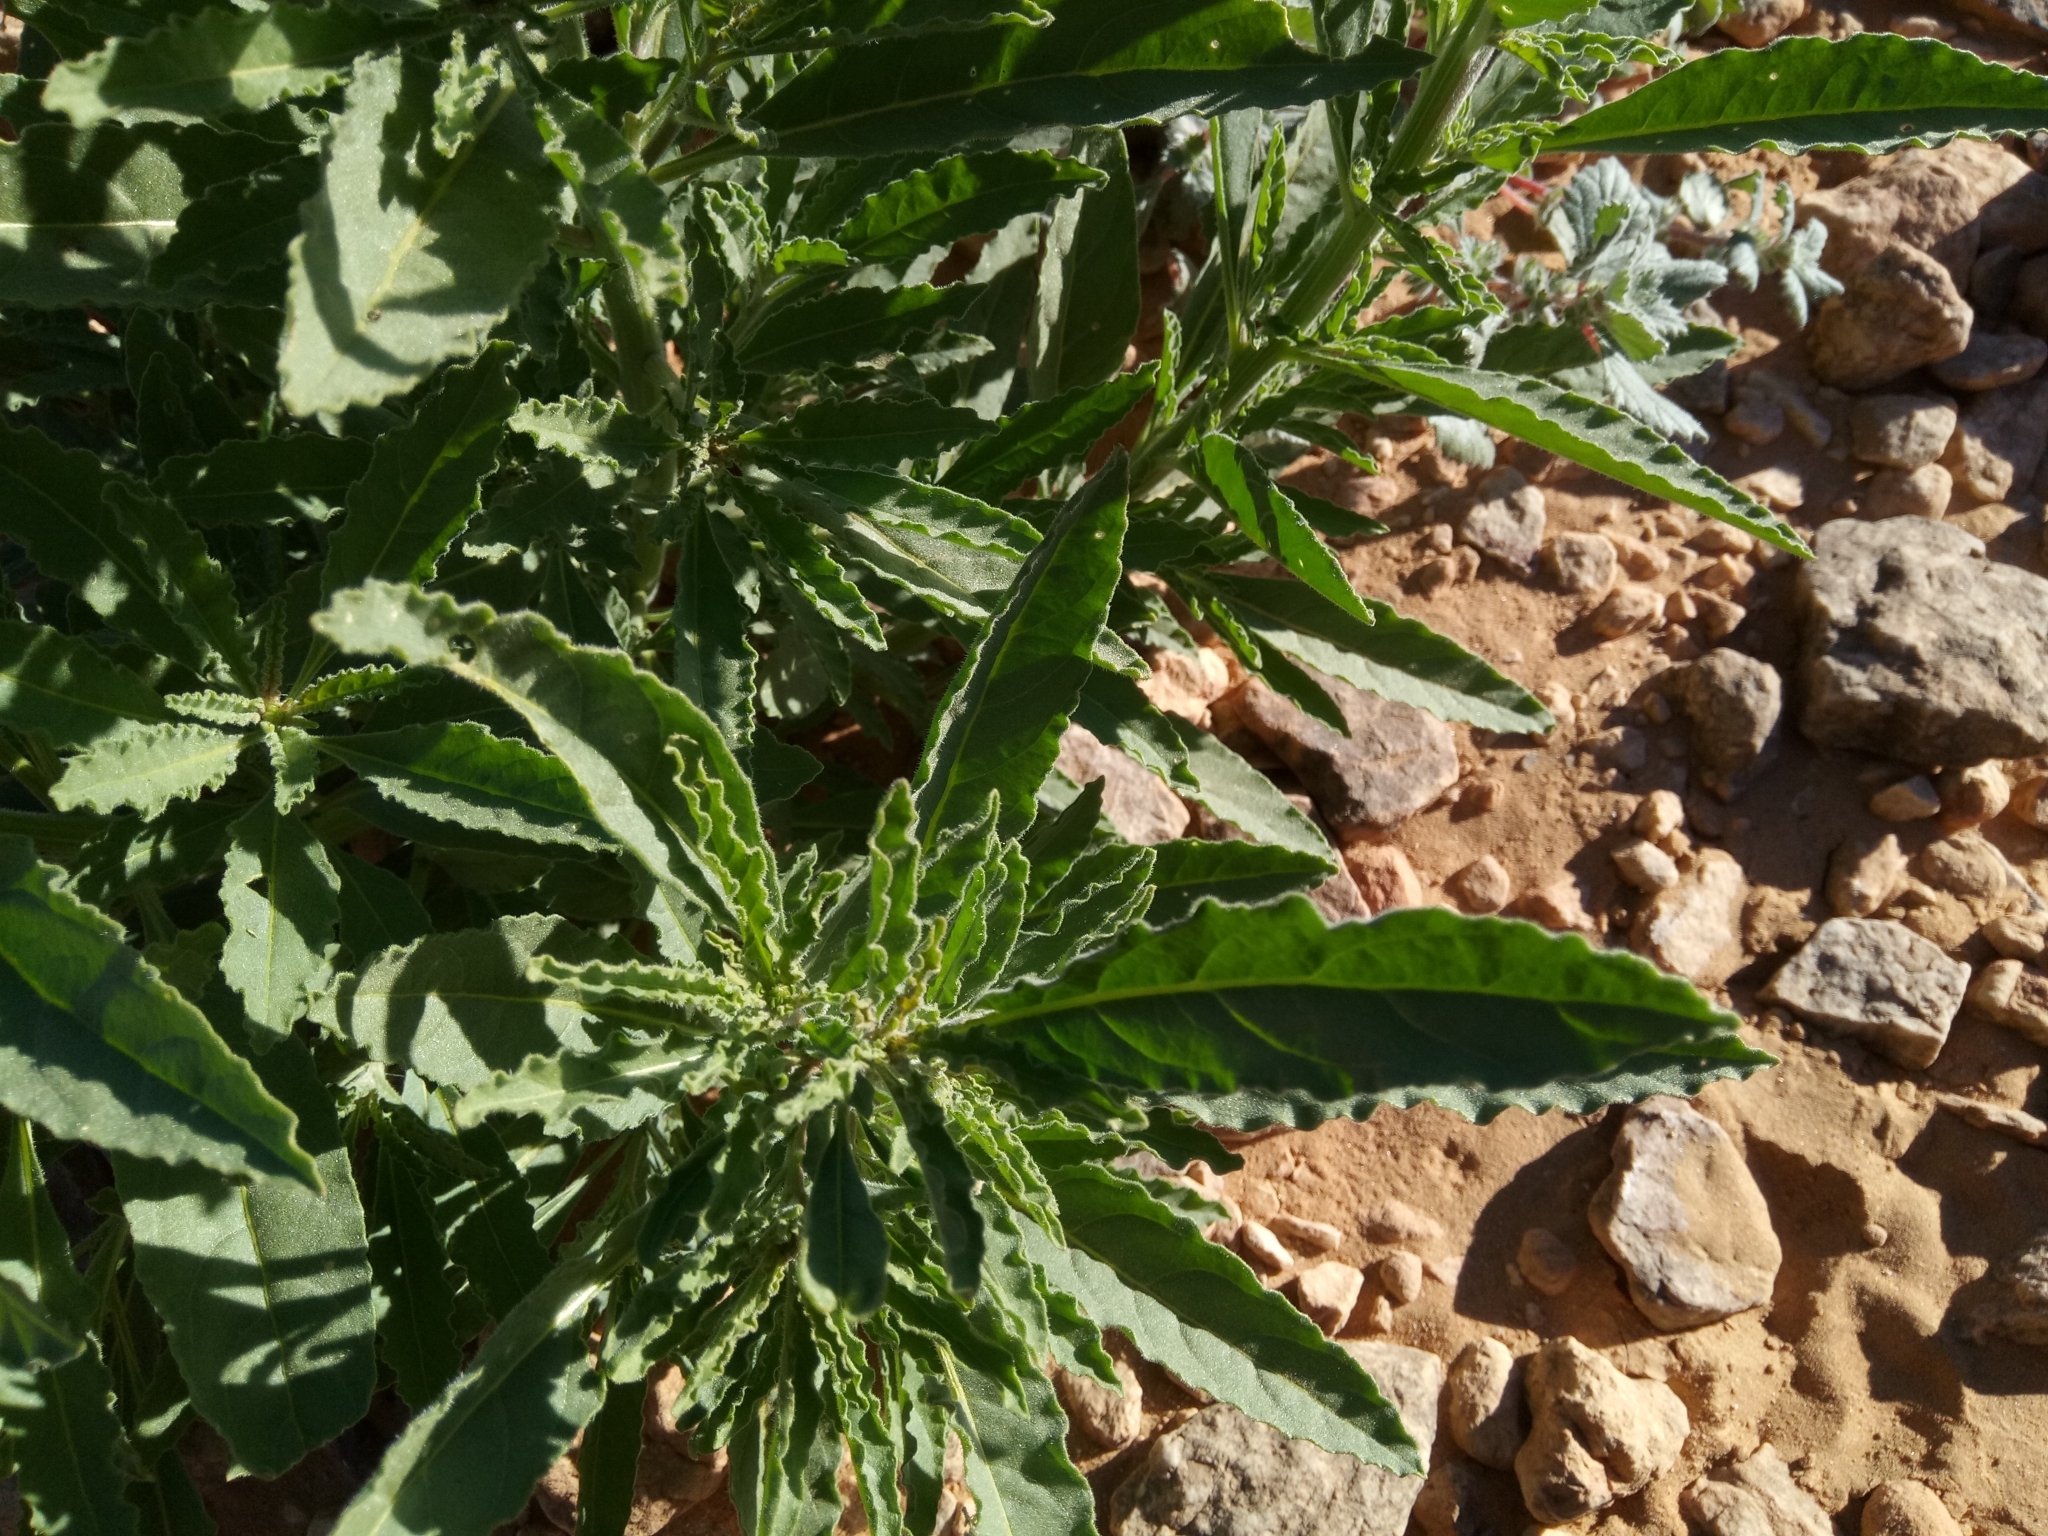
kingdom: Plantae
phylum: Tracheophyta
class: Magnoliopsida
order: Brassicales
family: Resedaceae
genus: Reseda
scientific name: Reseda villosa
